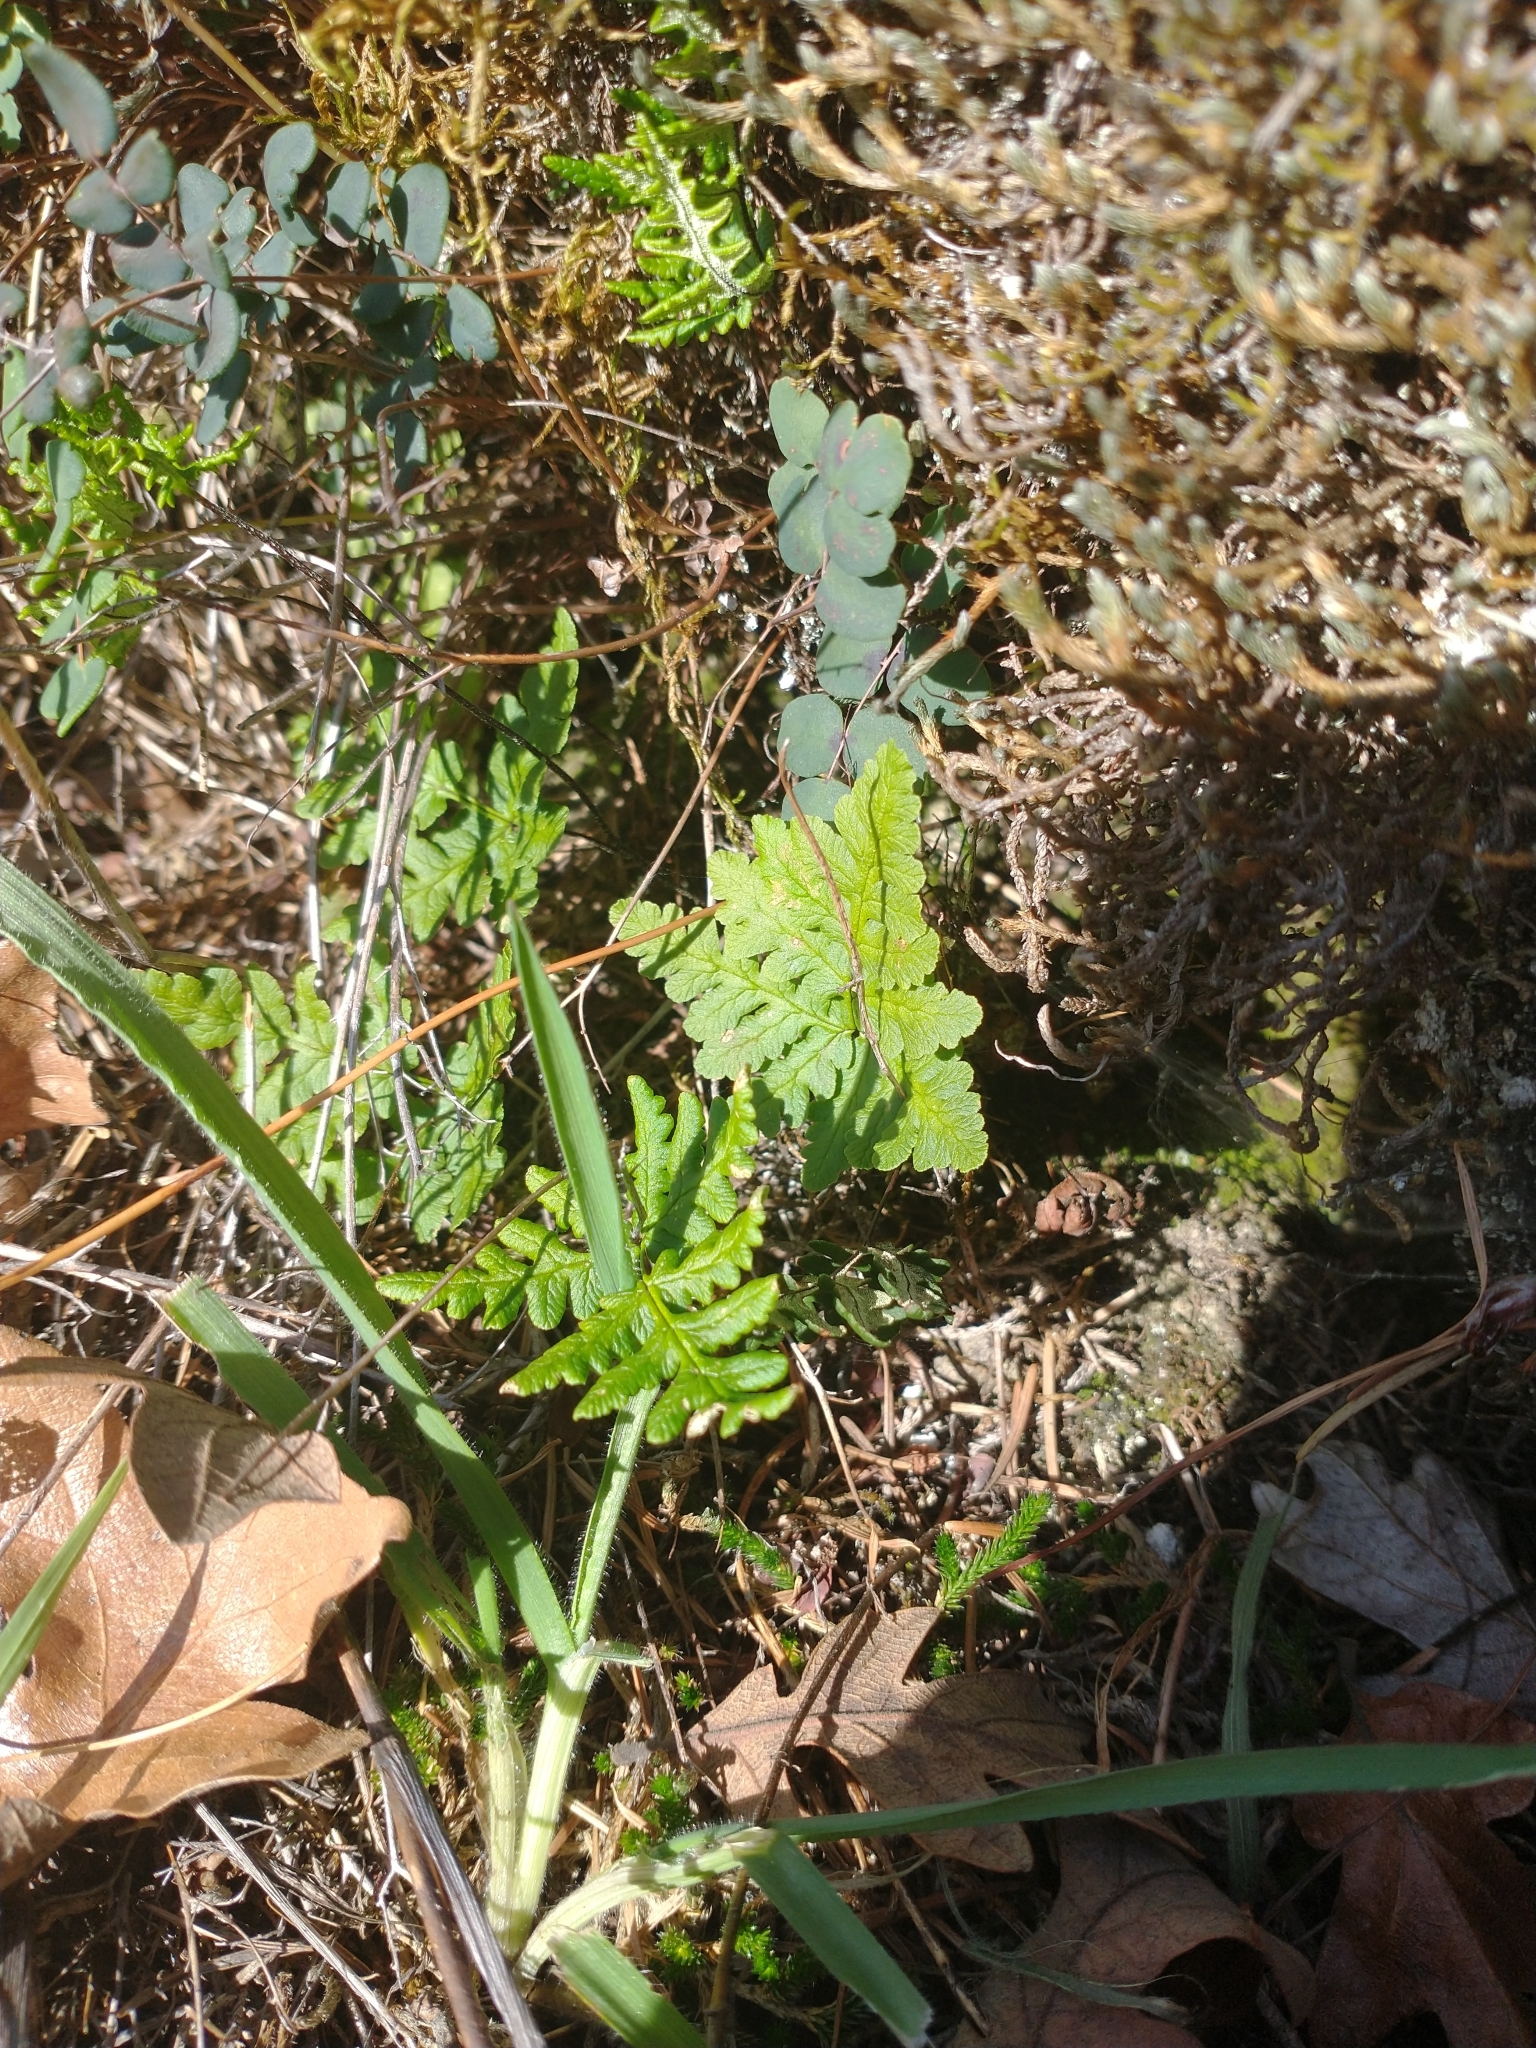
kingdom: Plantae
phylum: Tracheophyta
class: Polypodiopsida
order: Polypodiales
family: Pteridaceae
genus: Pentagramma
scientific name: Pentagramma triangularis
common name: Gold fern
